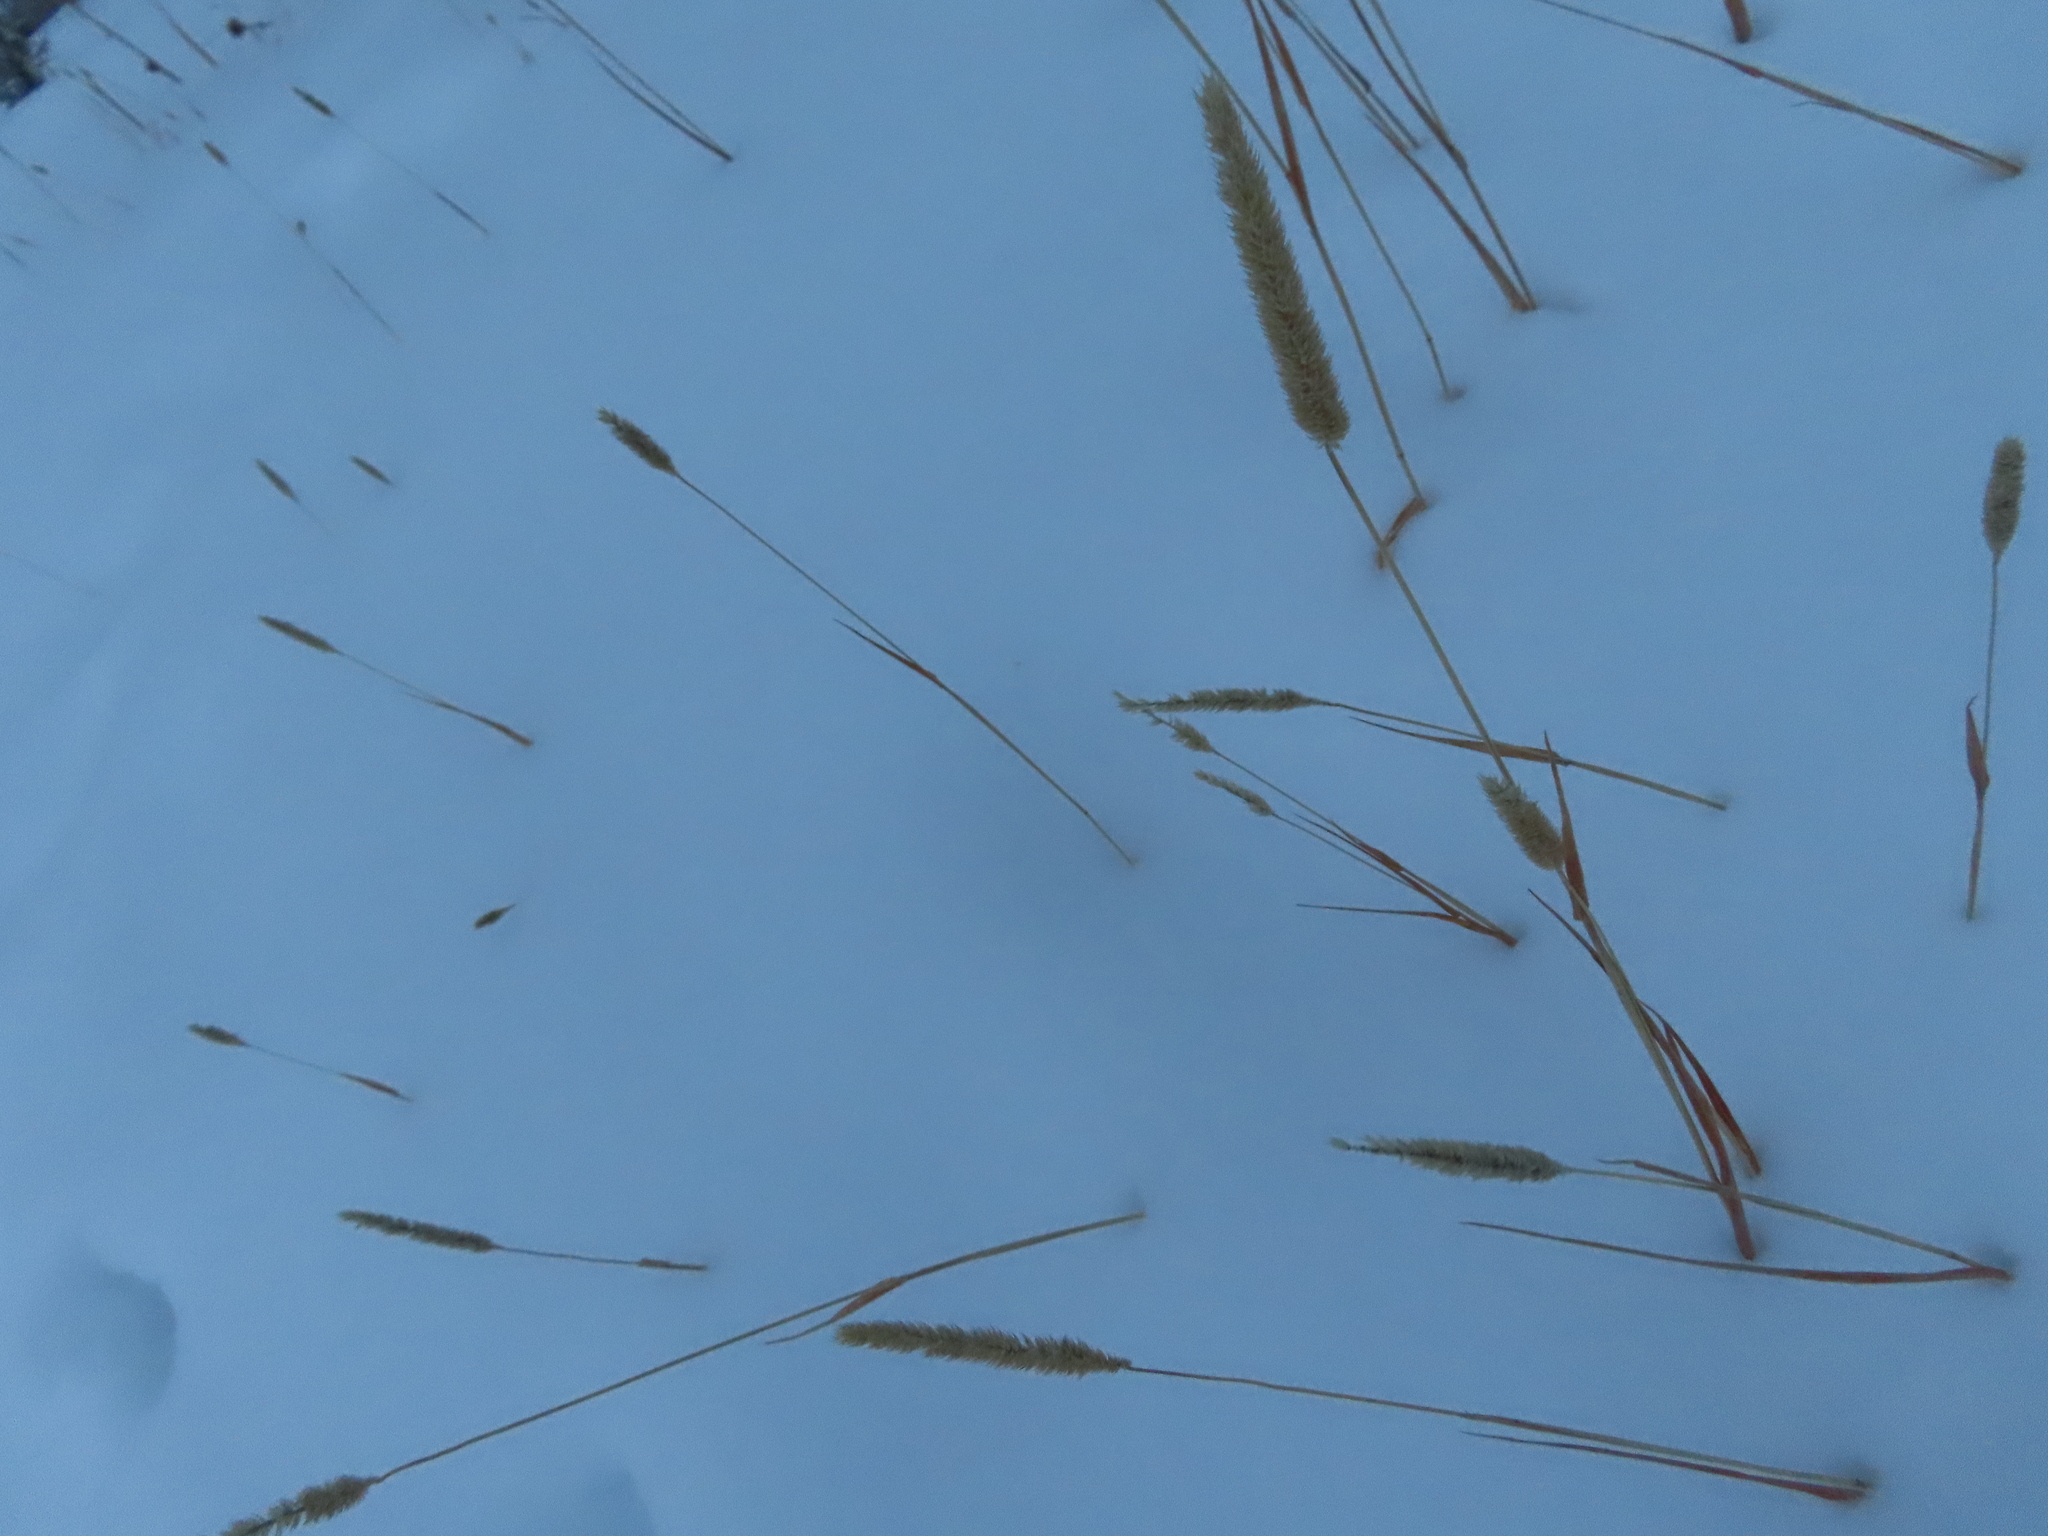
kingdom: Plantae
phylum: Tracheophyta
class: Liliopsida
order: Poales
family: Poaceae
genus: Phleum
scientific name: Phleum pratense
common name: Timothy grass
